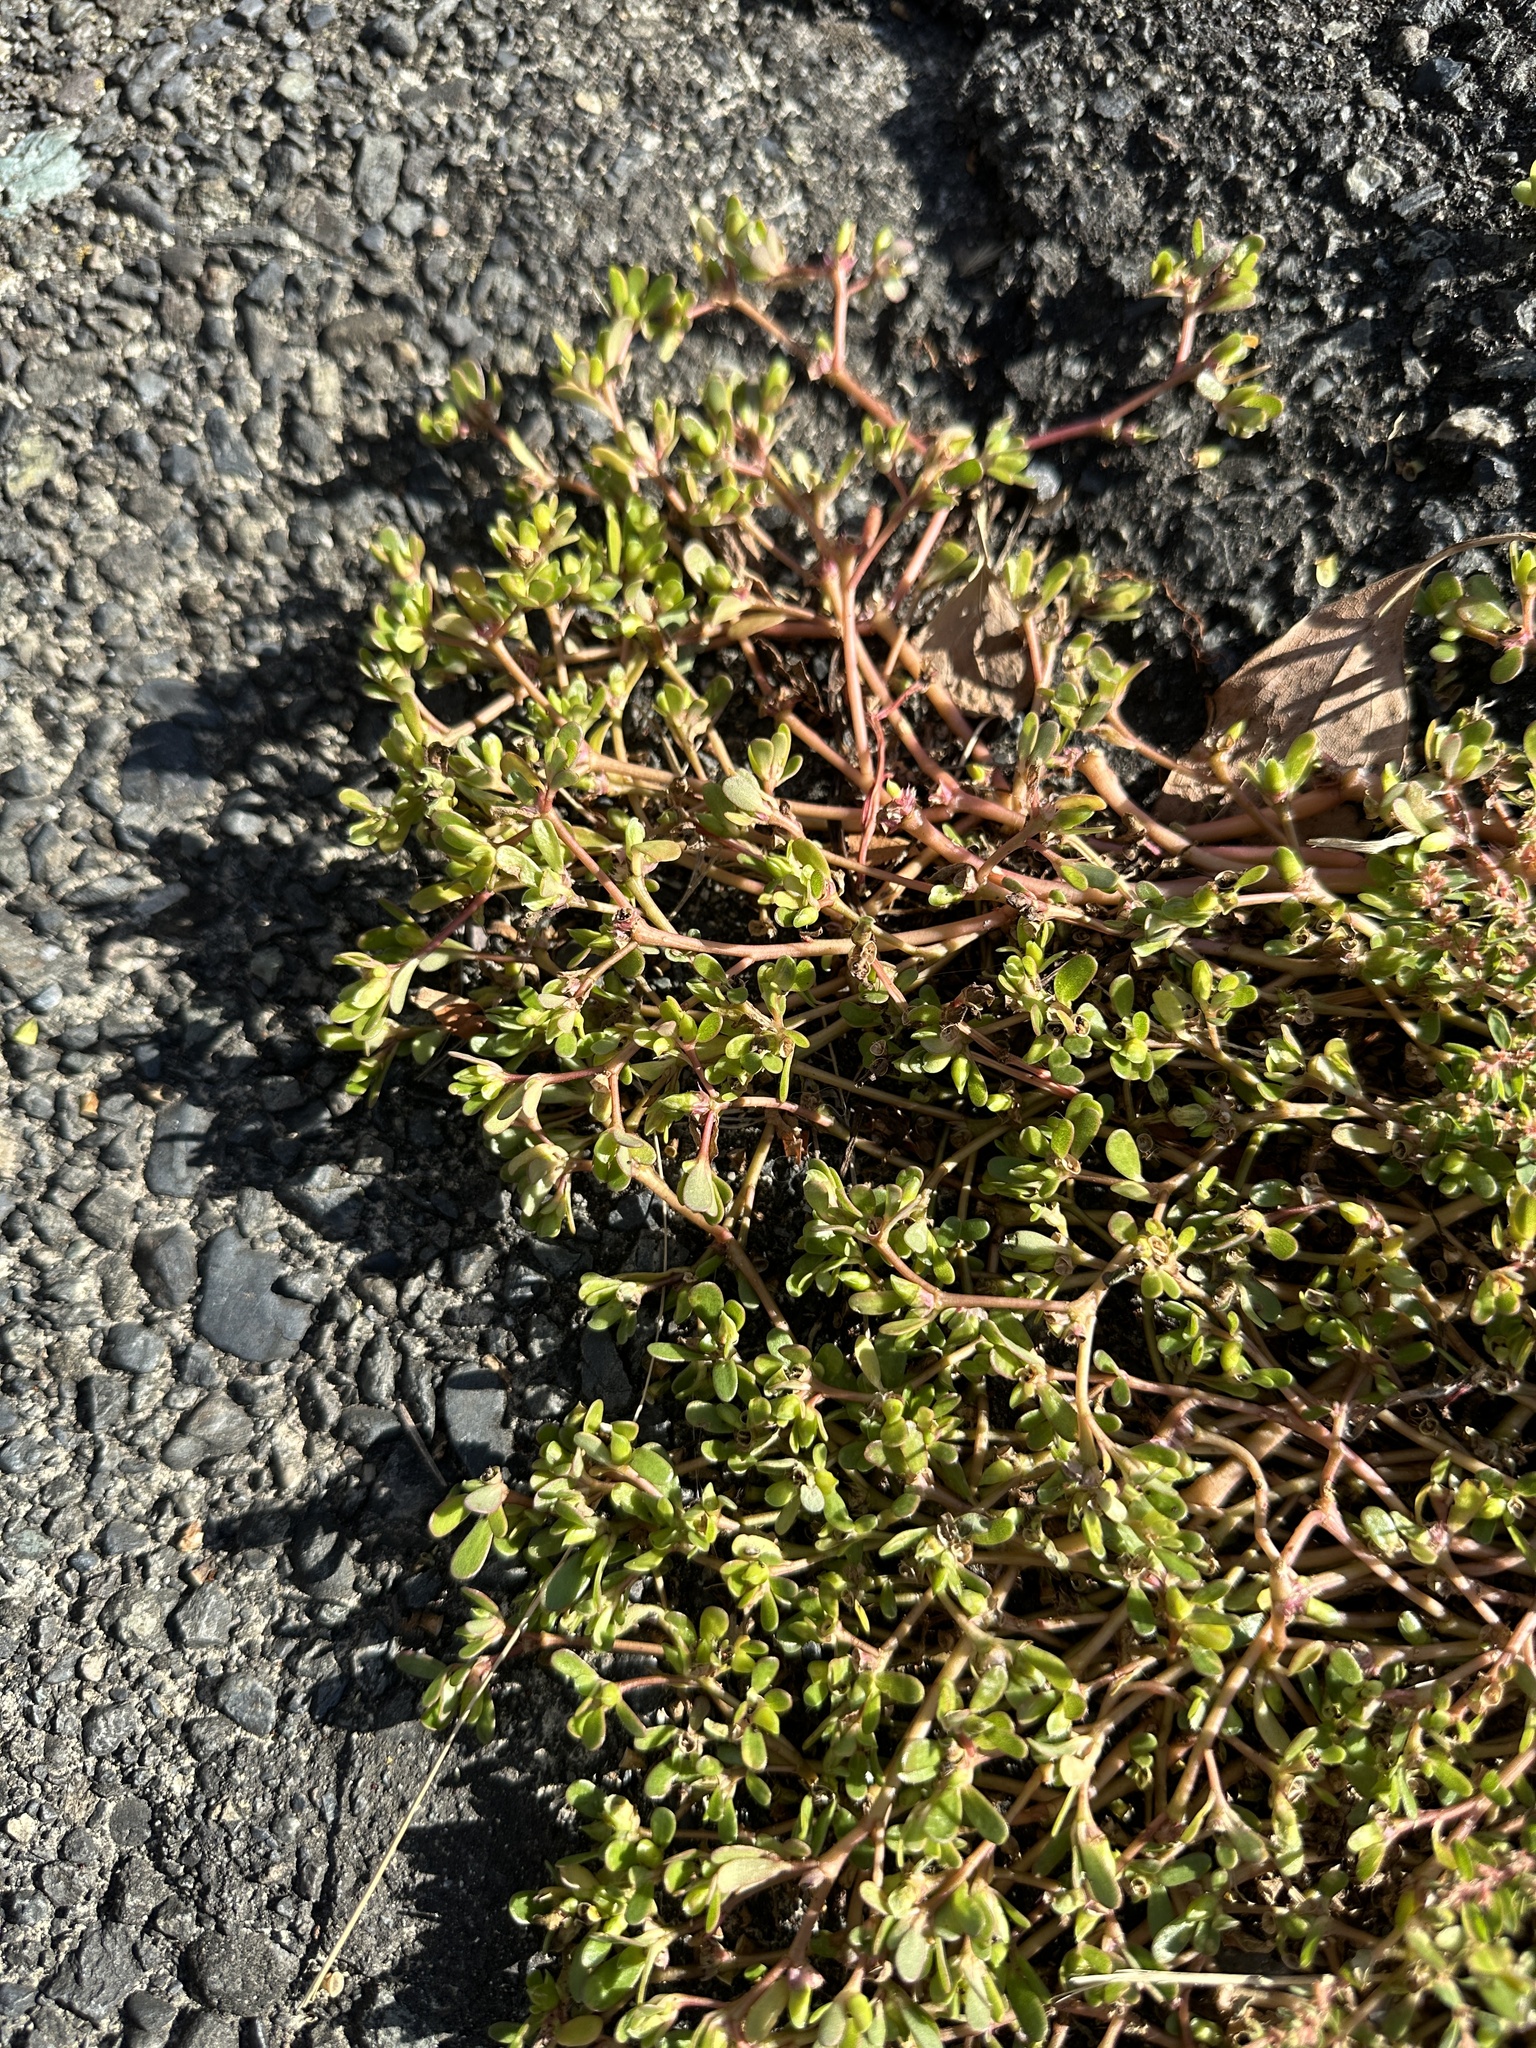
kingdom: Plantae
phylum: Tracheophyta
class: Magnoliopsida
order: Caryophyllales
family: Portulacaceae
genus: Portulaca
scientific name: Portulaca oleracea
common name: Common purslane
